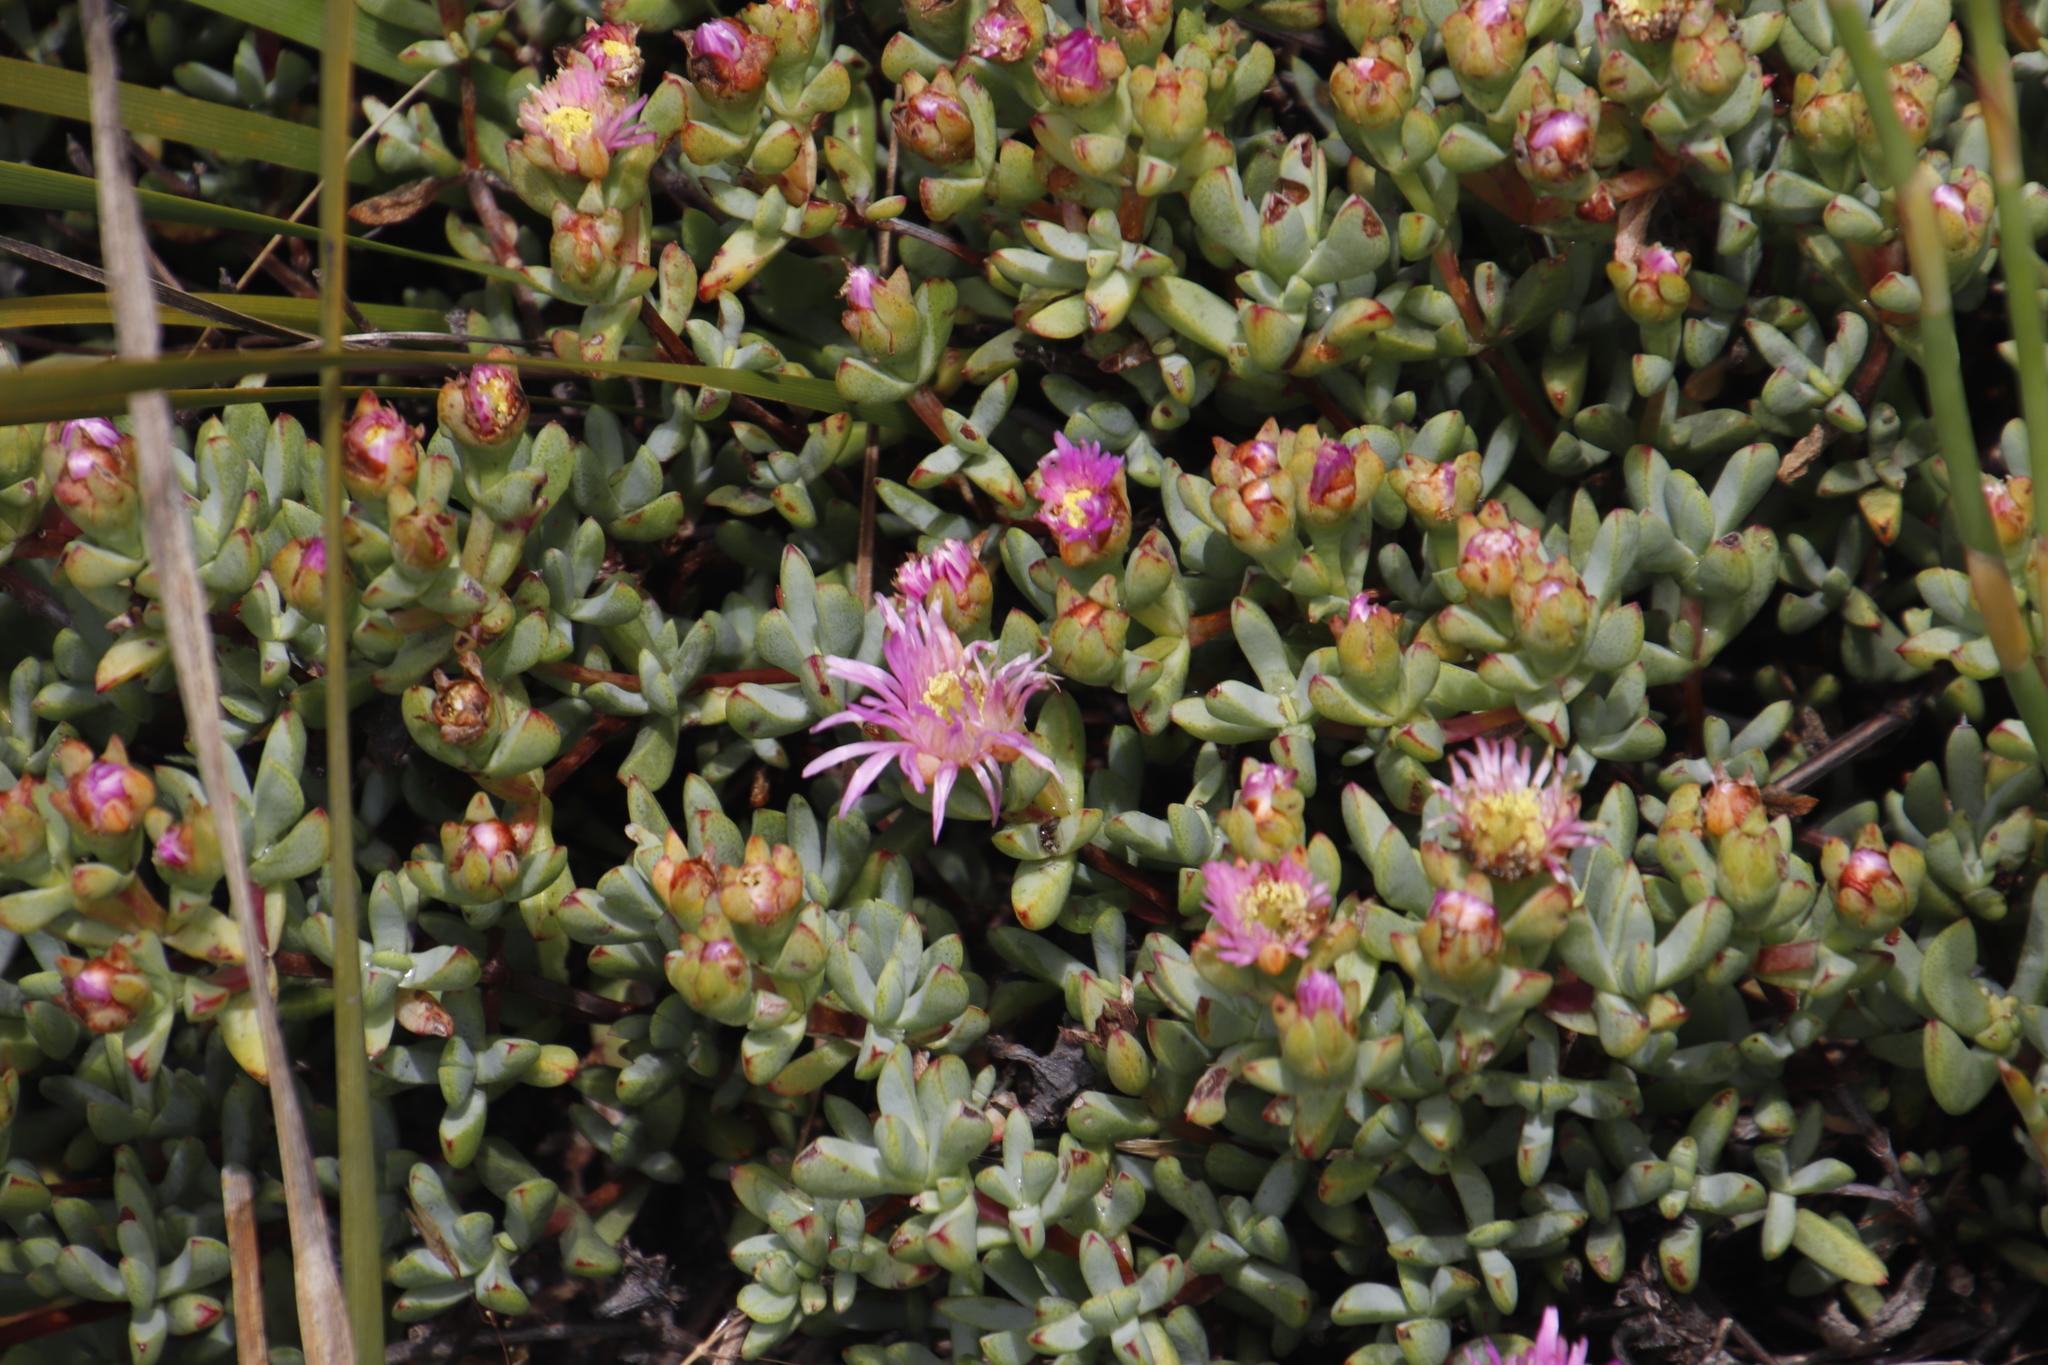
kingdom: Plantae
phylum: Tracheophyta
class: Magnoliopsida
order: Caryophyllales
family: Aizoaceae
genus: Oscularia
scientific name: Oscularia falciformis
